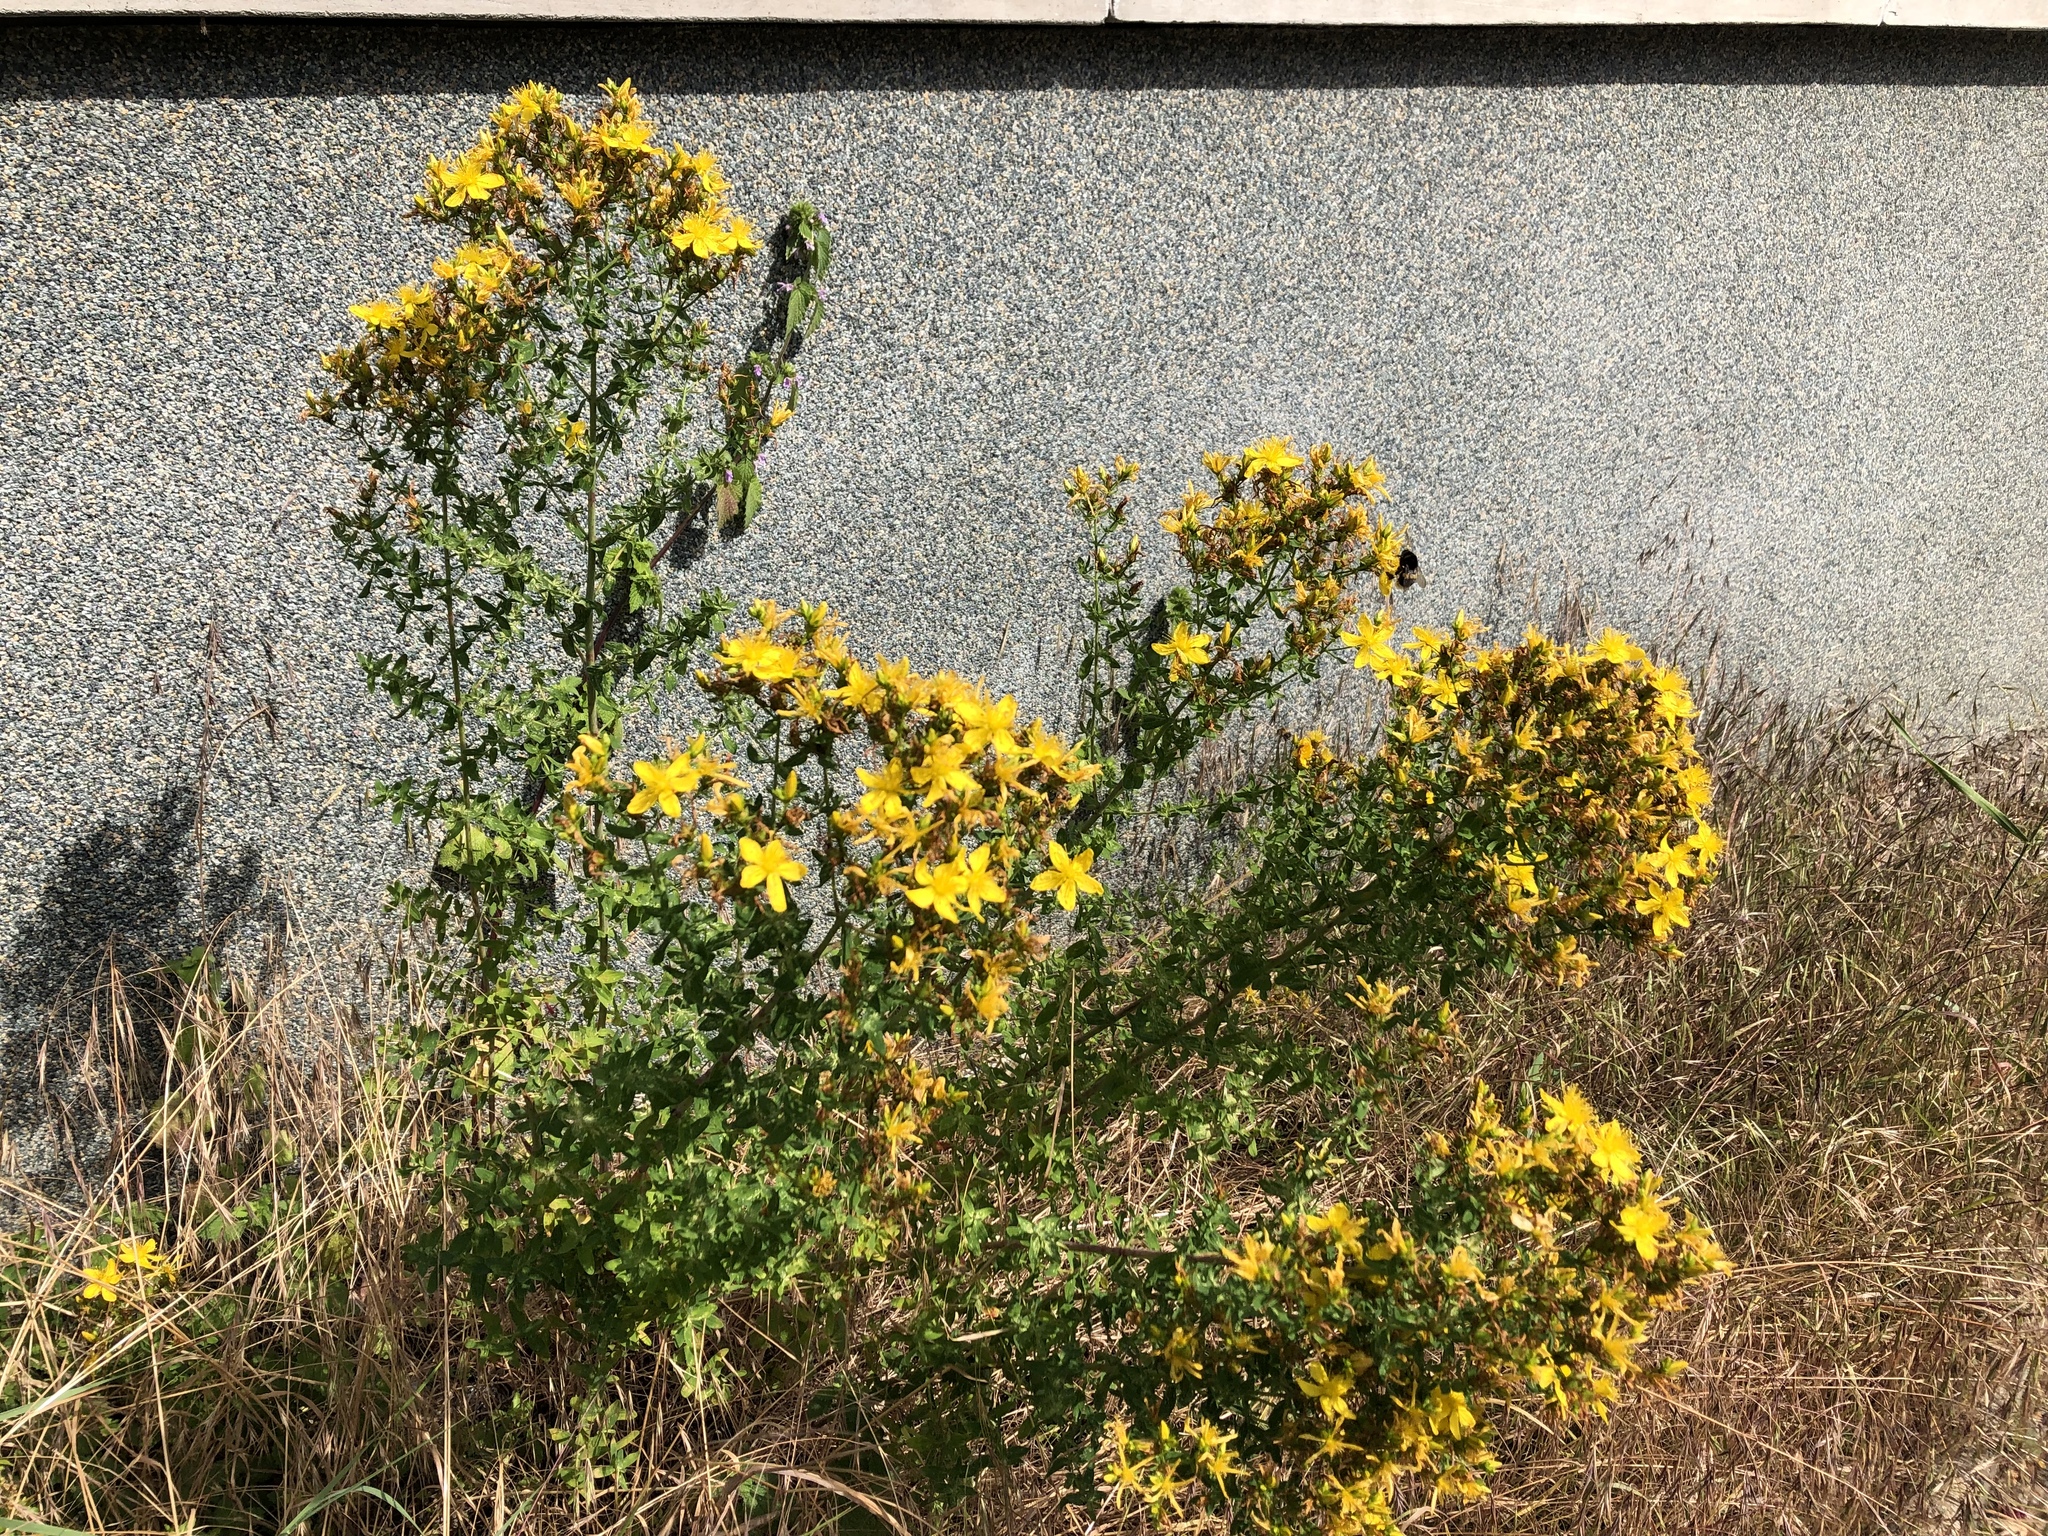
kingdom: Plantae
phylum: Tracheophyta
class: Magnoliopsida
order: Malpighiales
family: Hypericaceae
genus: Hypericum
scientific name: Hypericum perforatum
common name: Common st. johnswort
